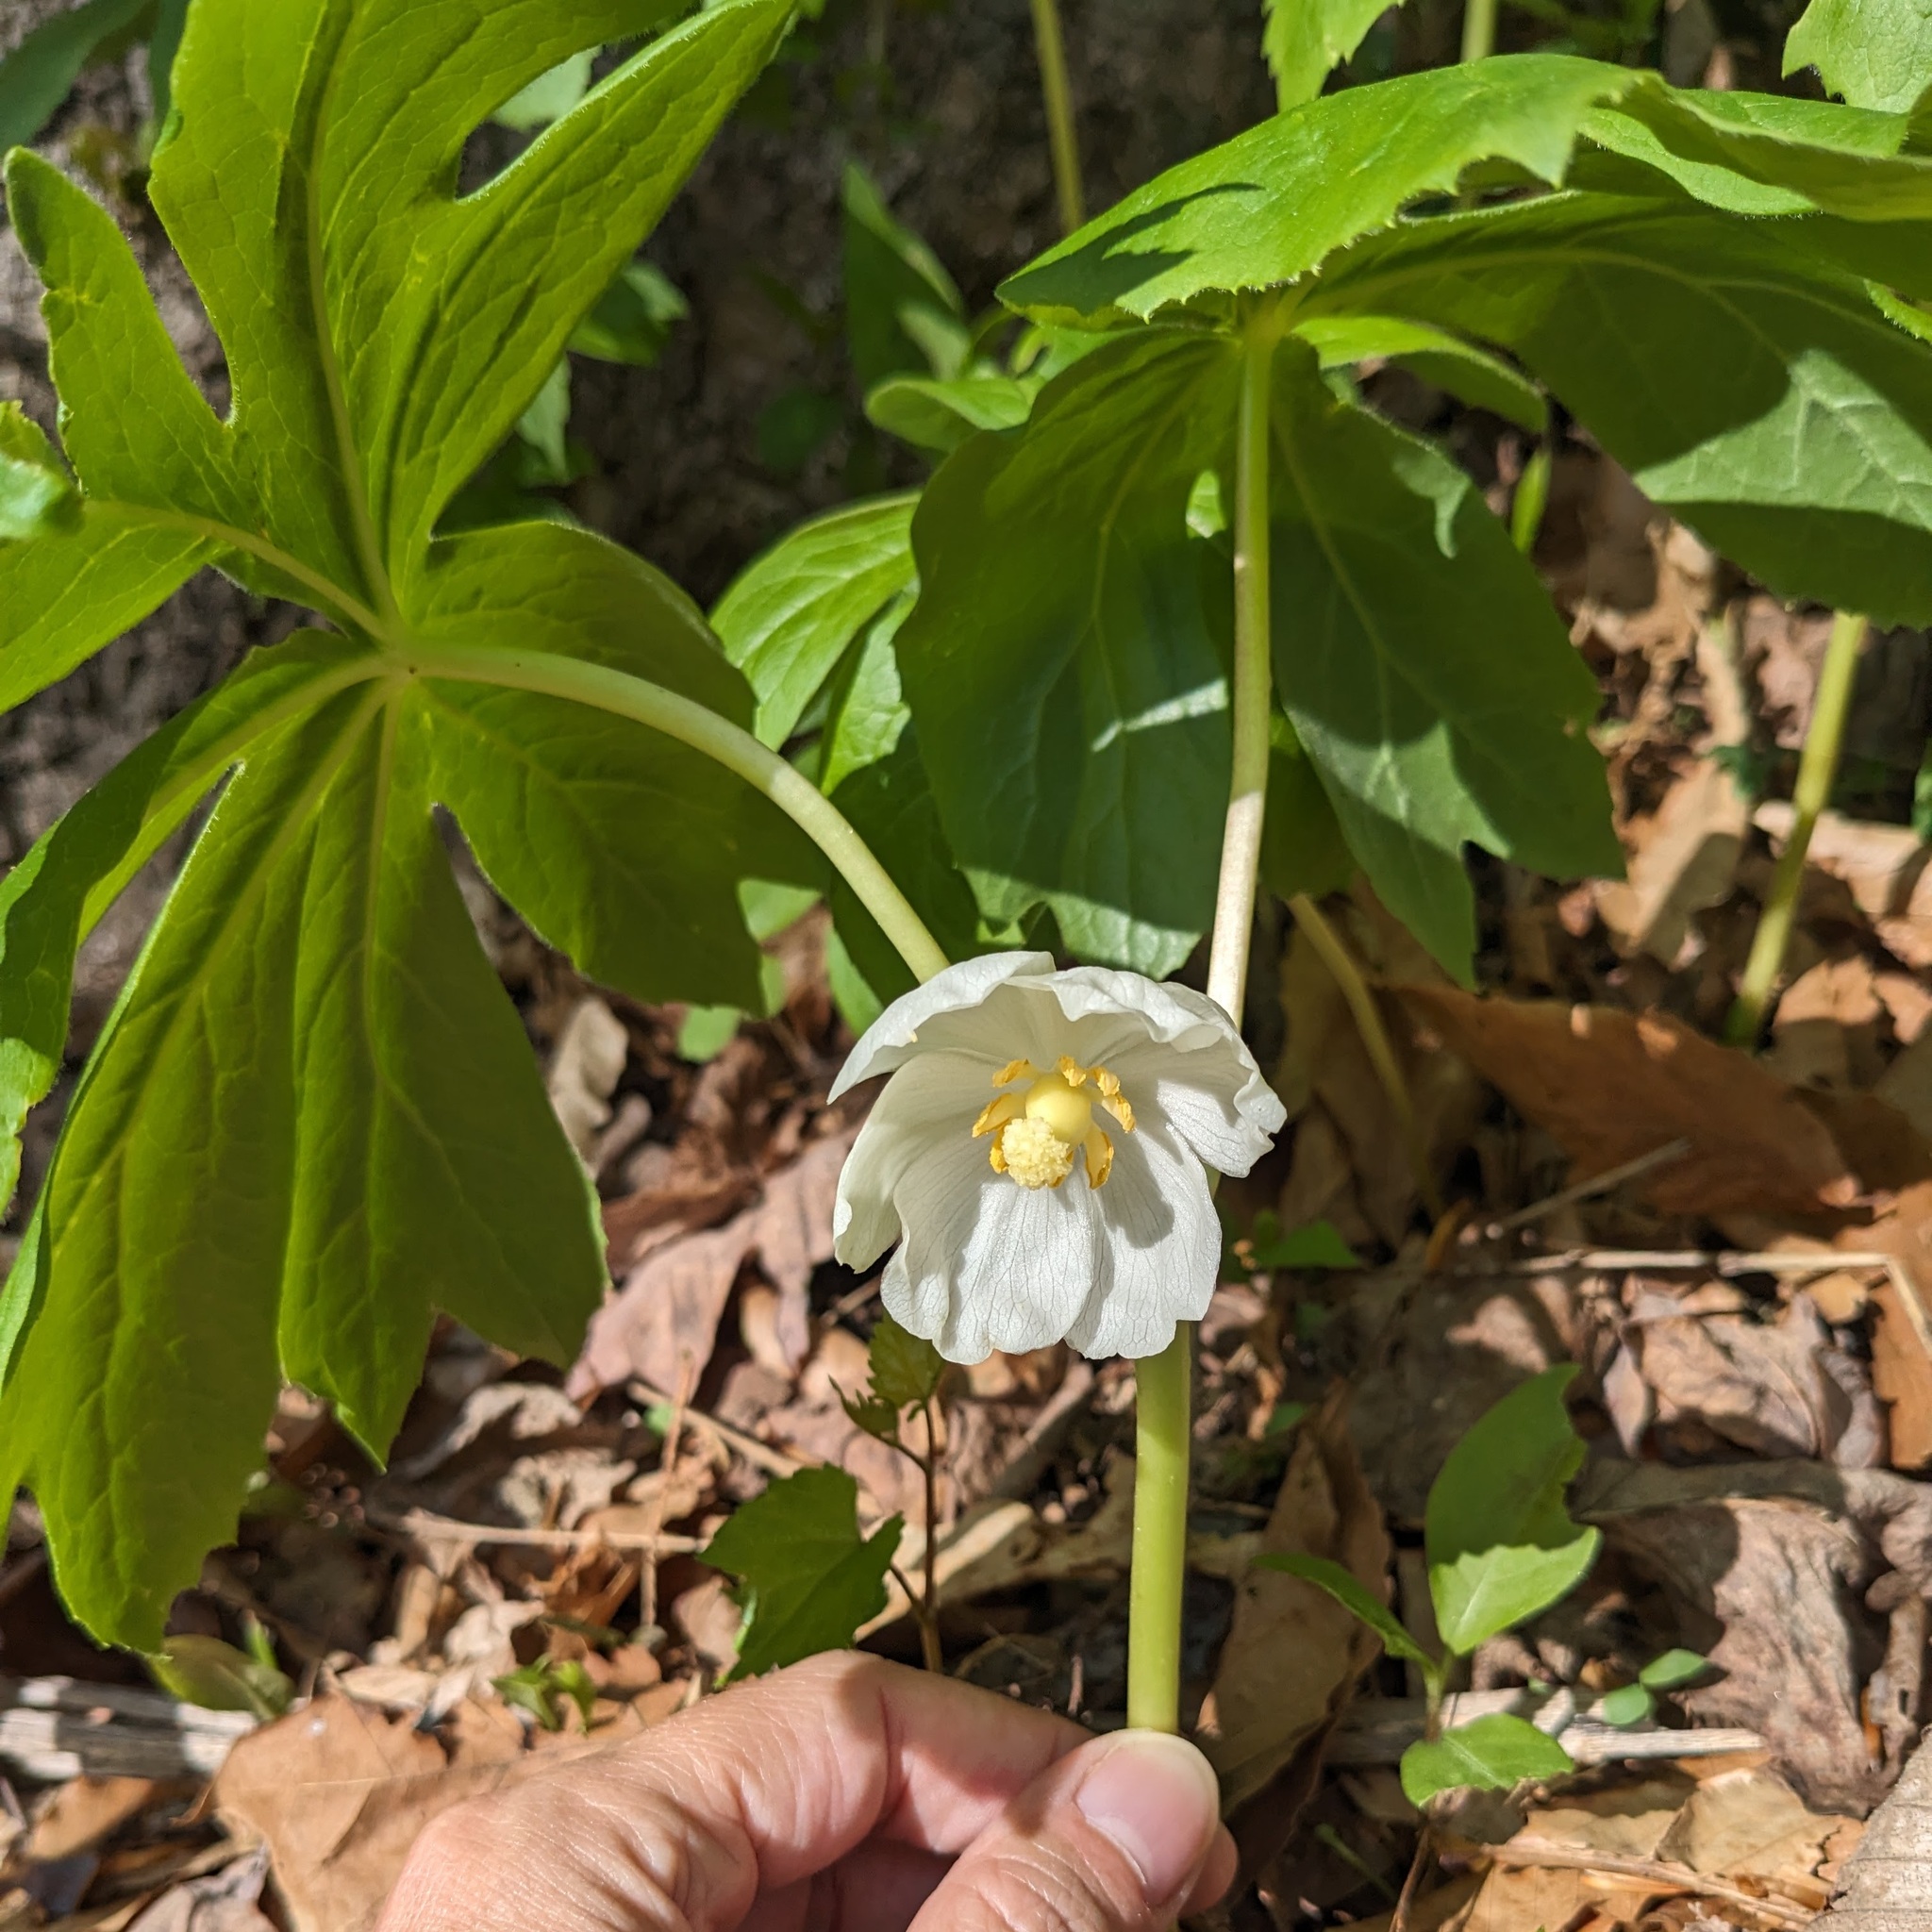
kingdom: Plantae
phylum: Tracheophyta
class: Magnoliopsida
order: Ranunculales
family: Berberidaceae
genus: Podophyllum
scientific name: Podophyllum peltatum
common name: Wild mandrake
